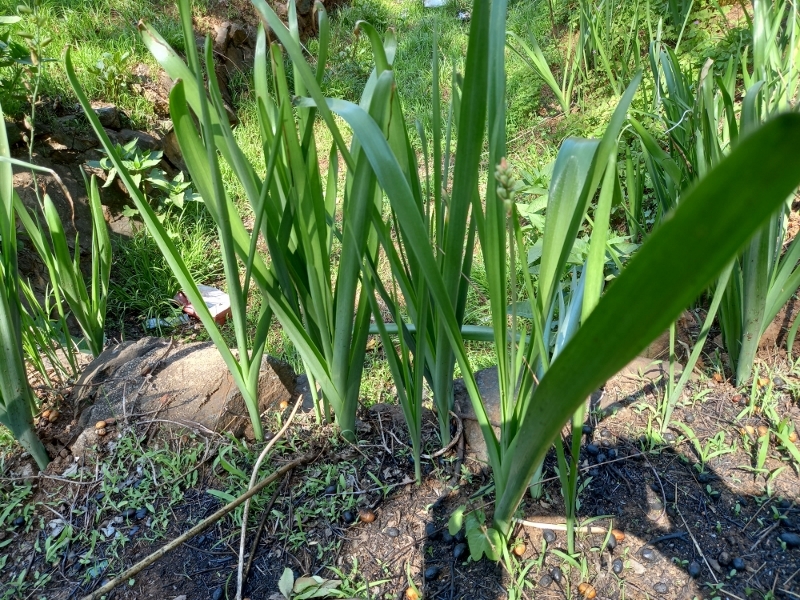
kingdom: Plantae
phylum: Tracheophyta
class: Liliopsida
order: Asparagales
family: Asparagaceae
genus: Albuca
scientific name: Albuca abyssinica
